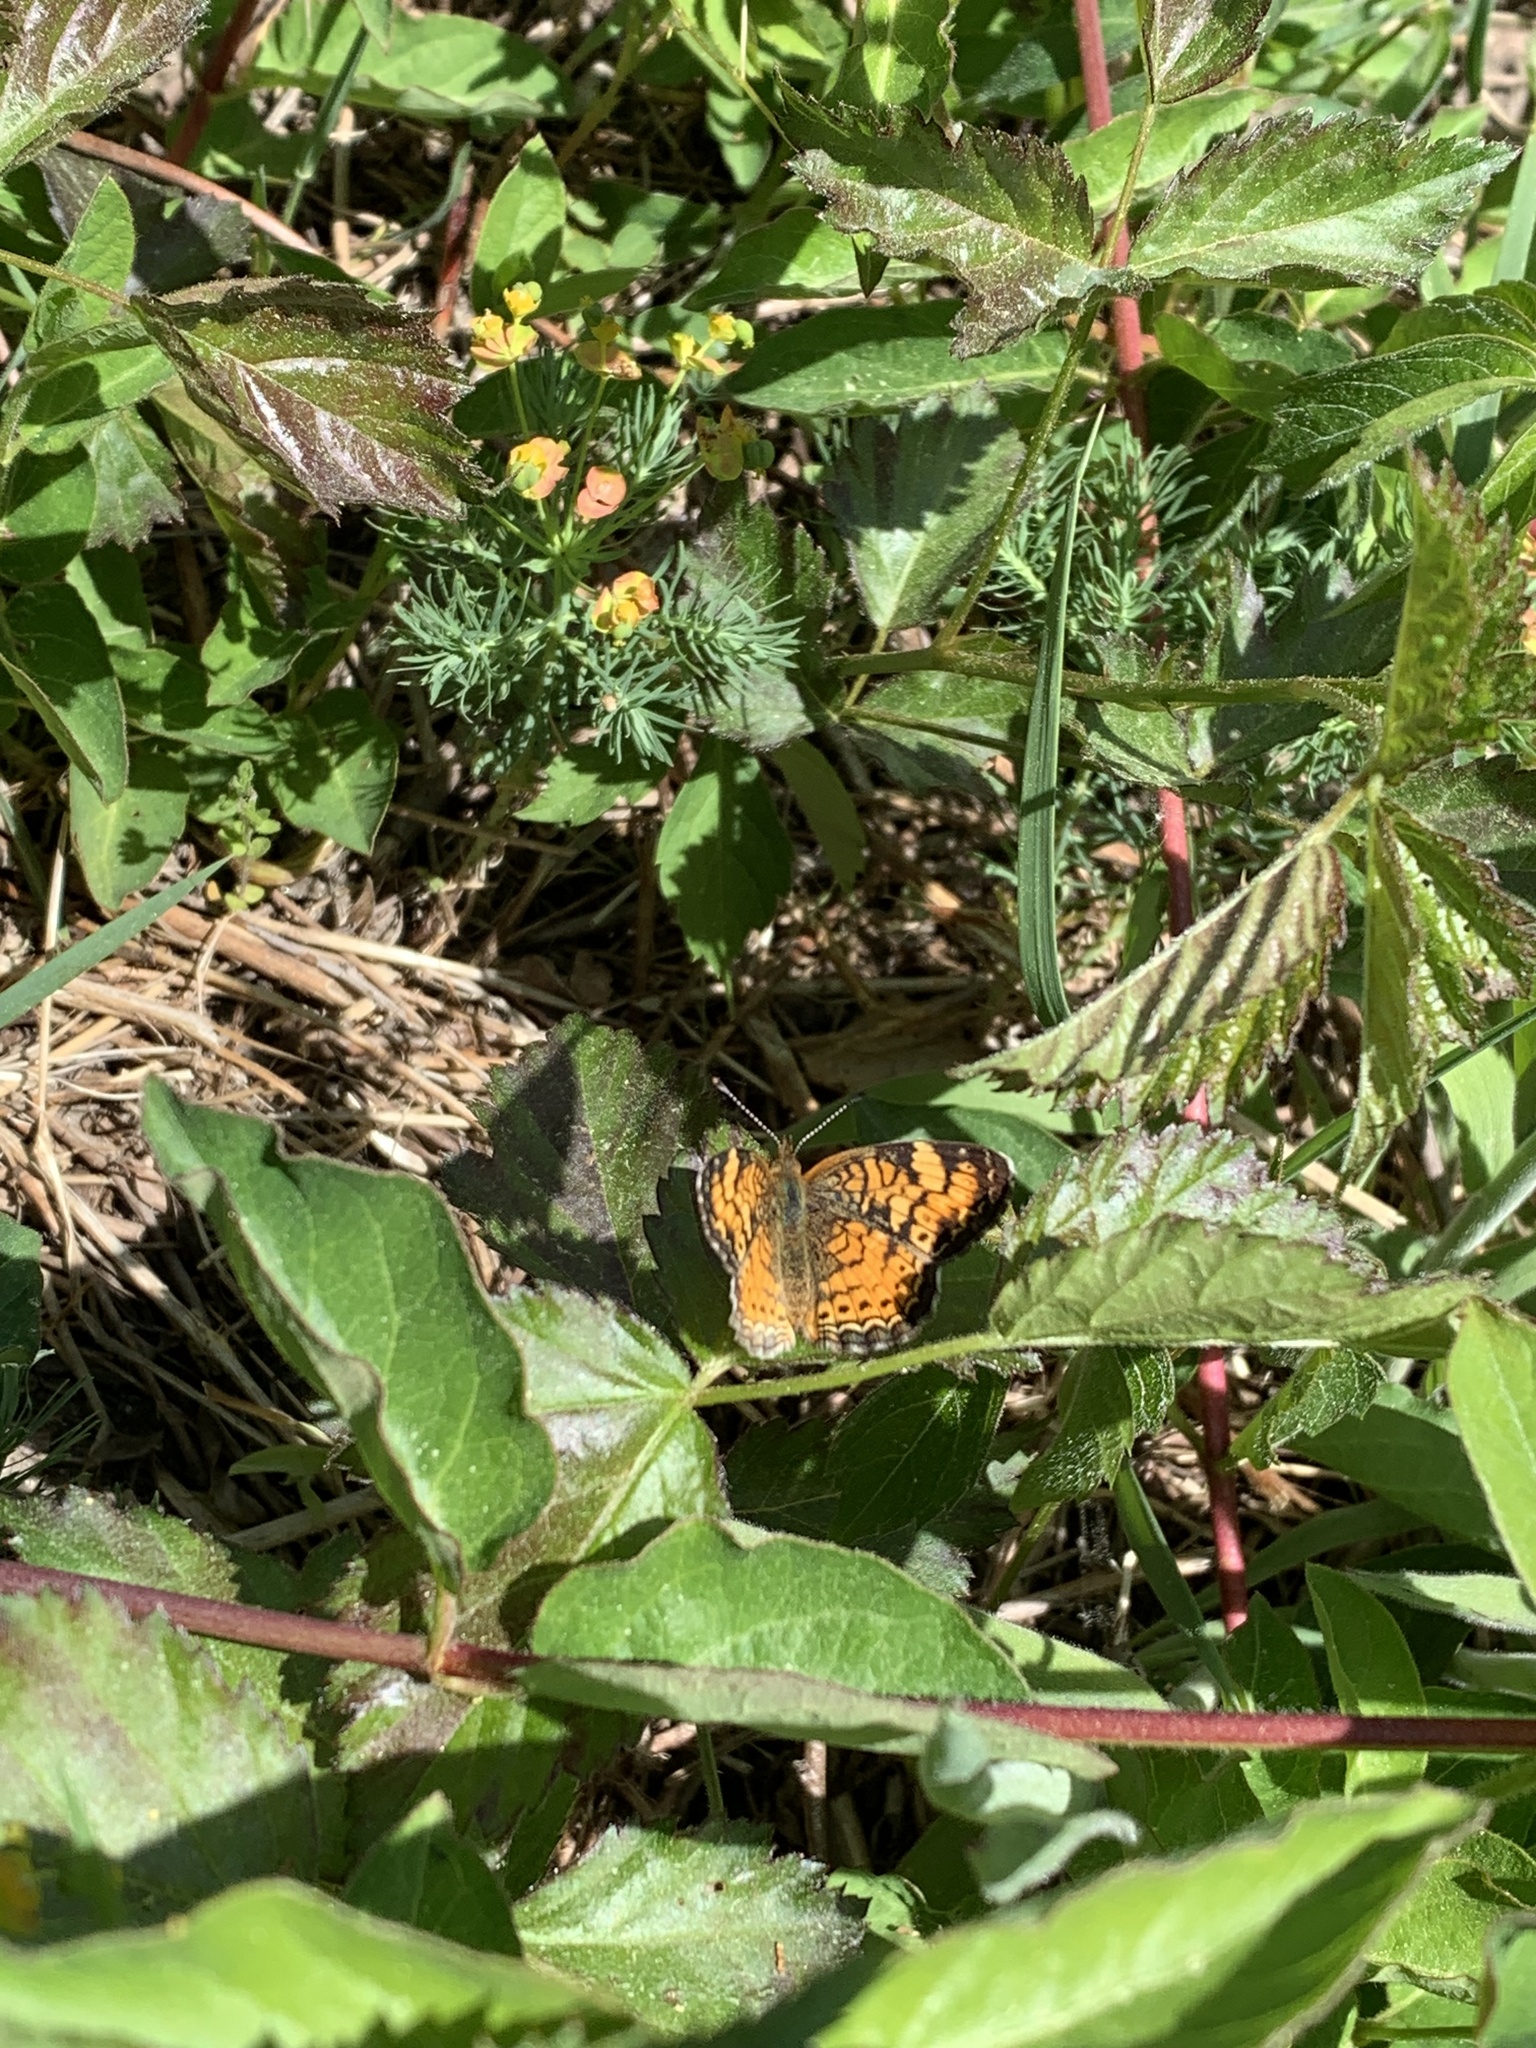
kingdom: Animalia
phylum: Arthropoda
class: Insecta
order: Lepidoptera
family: Nymphalidae
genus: Phyciodes
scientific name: Phyciodes tharos
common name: Pearl crescent
